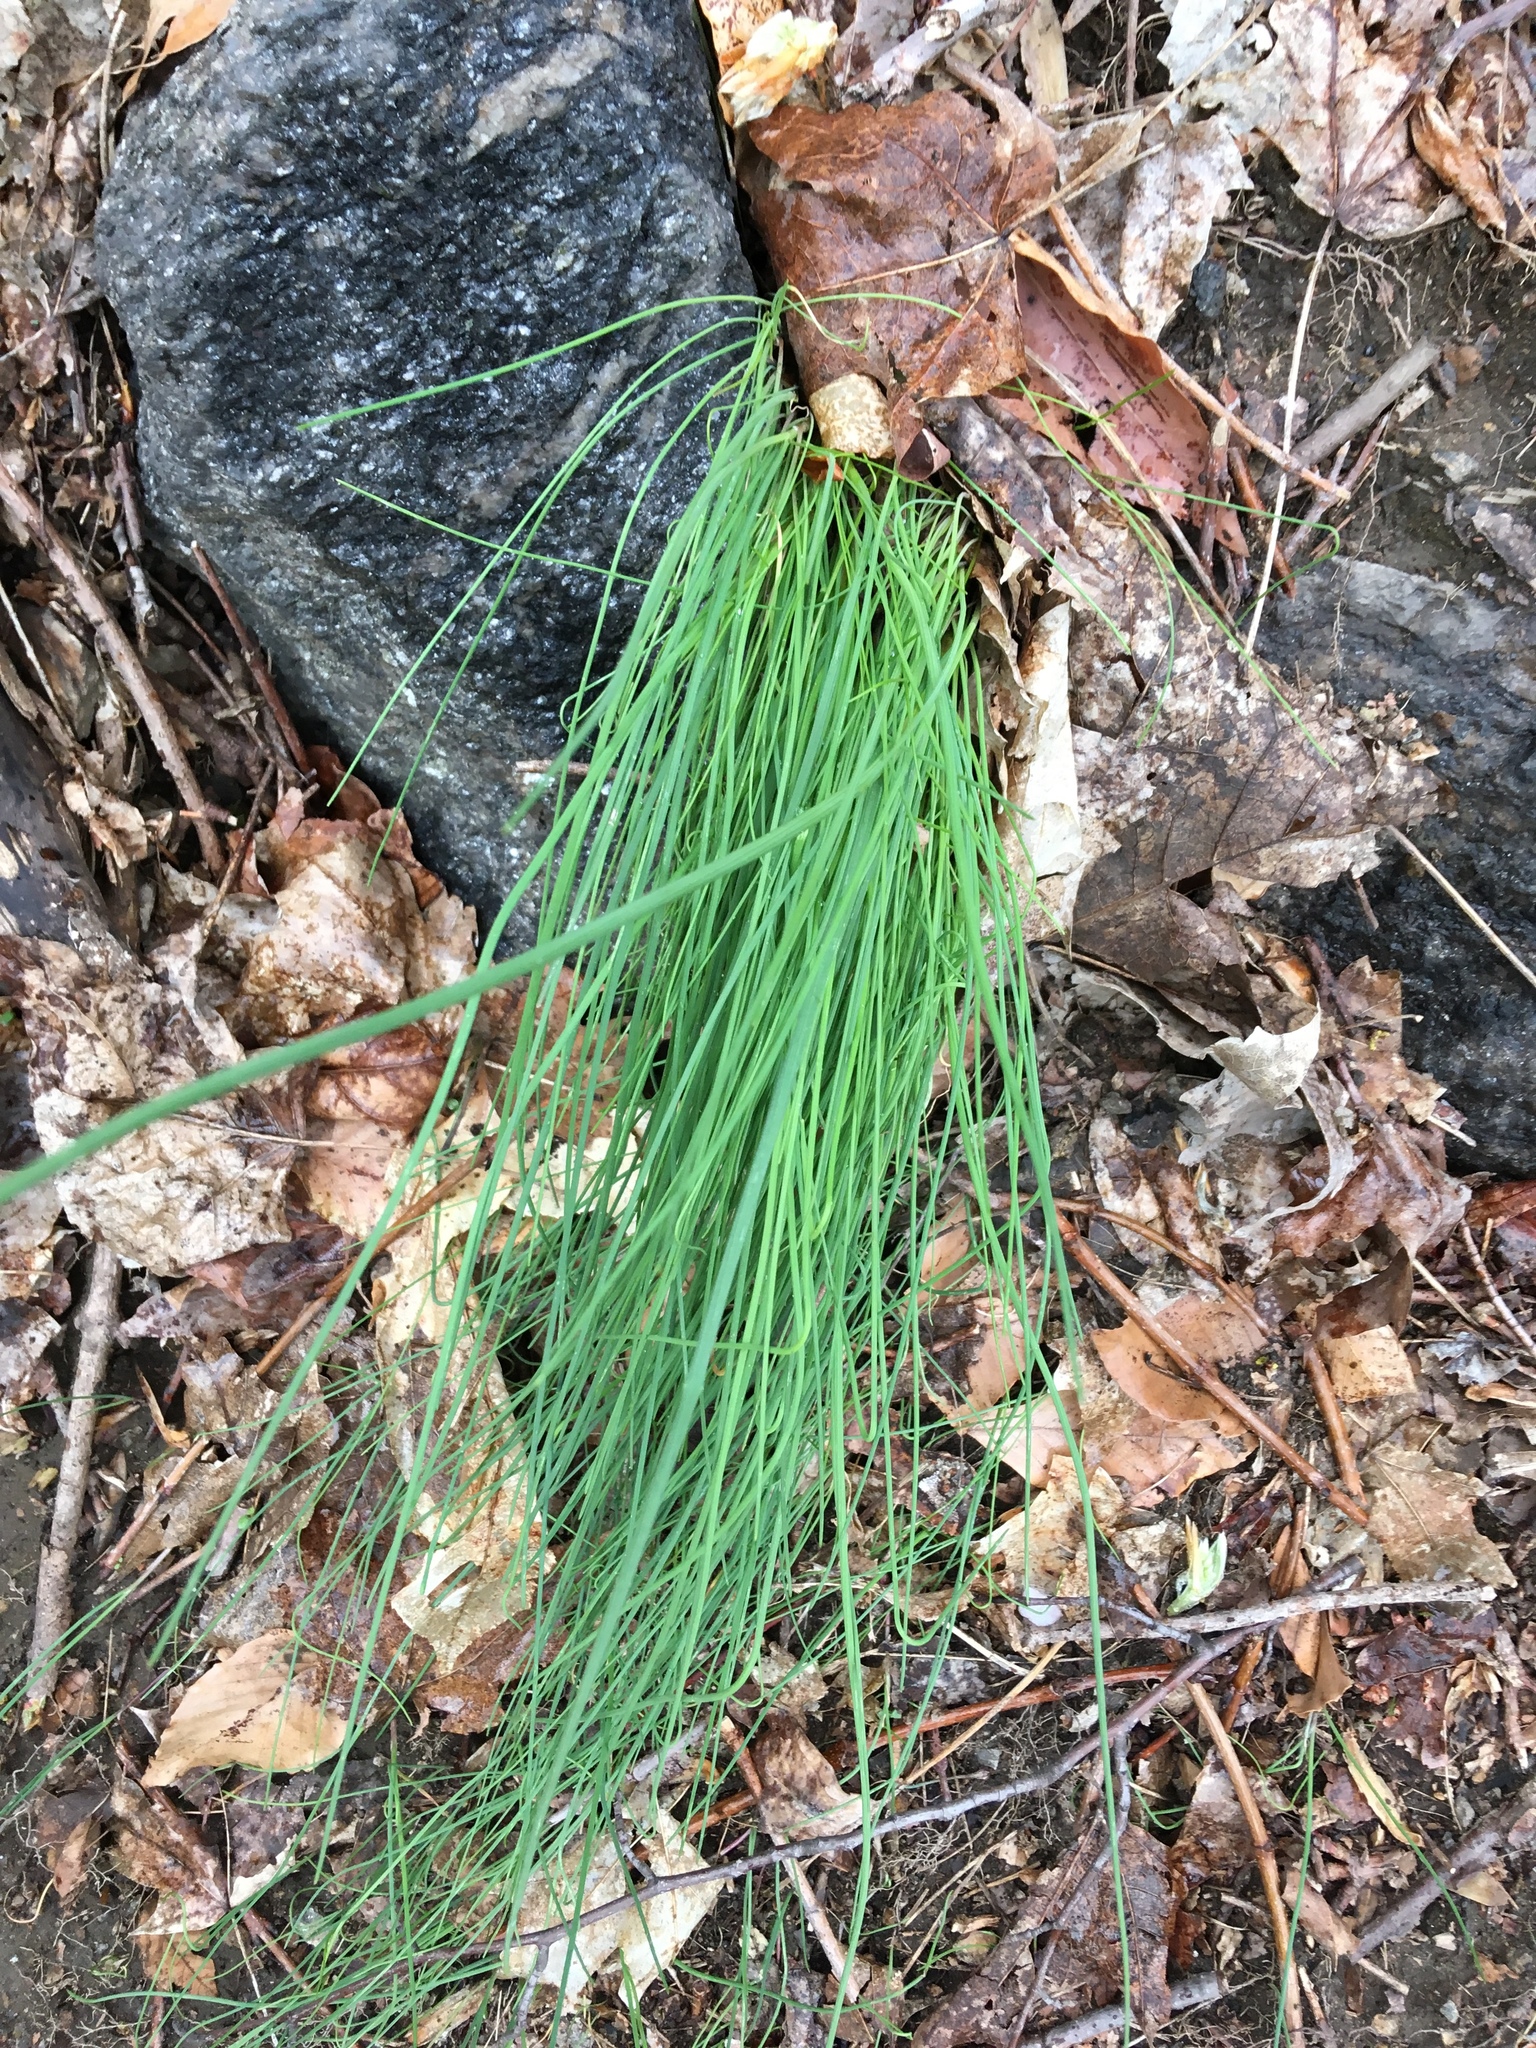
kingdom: Plantae
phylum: Tracheophyta
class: Liliopsida
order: Asparagales
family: Amaryllidaceae
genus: Allium
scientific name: Allium vineale
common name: Crow garlic
